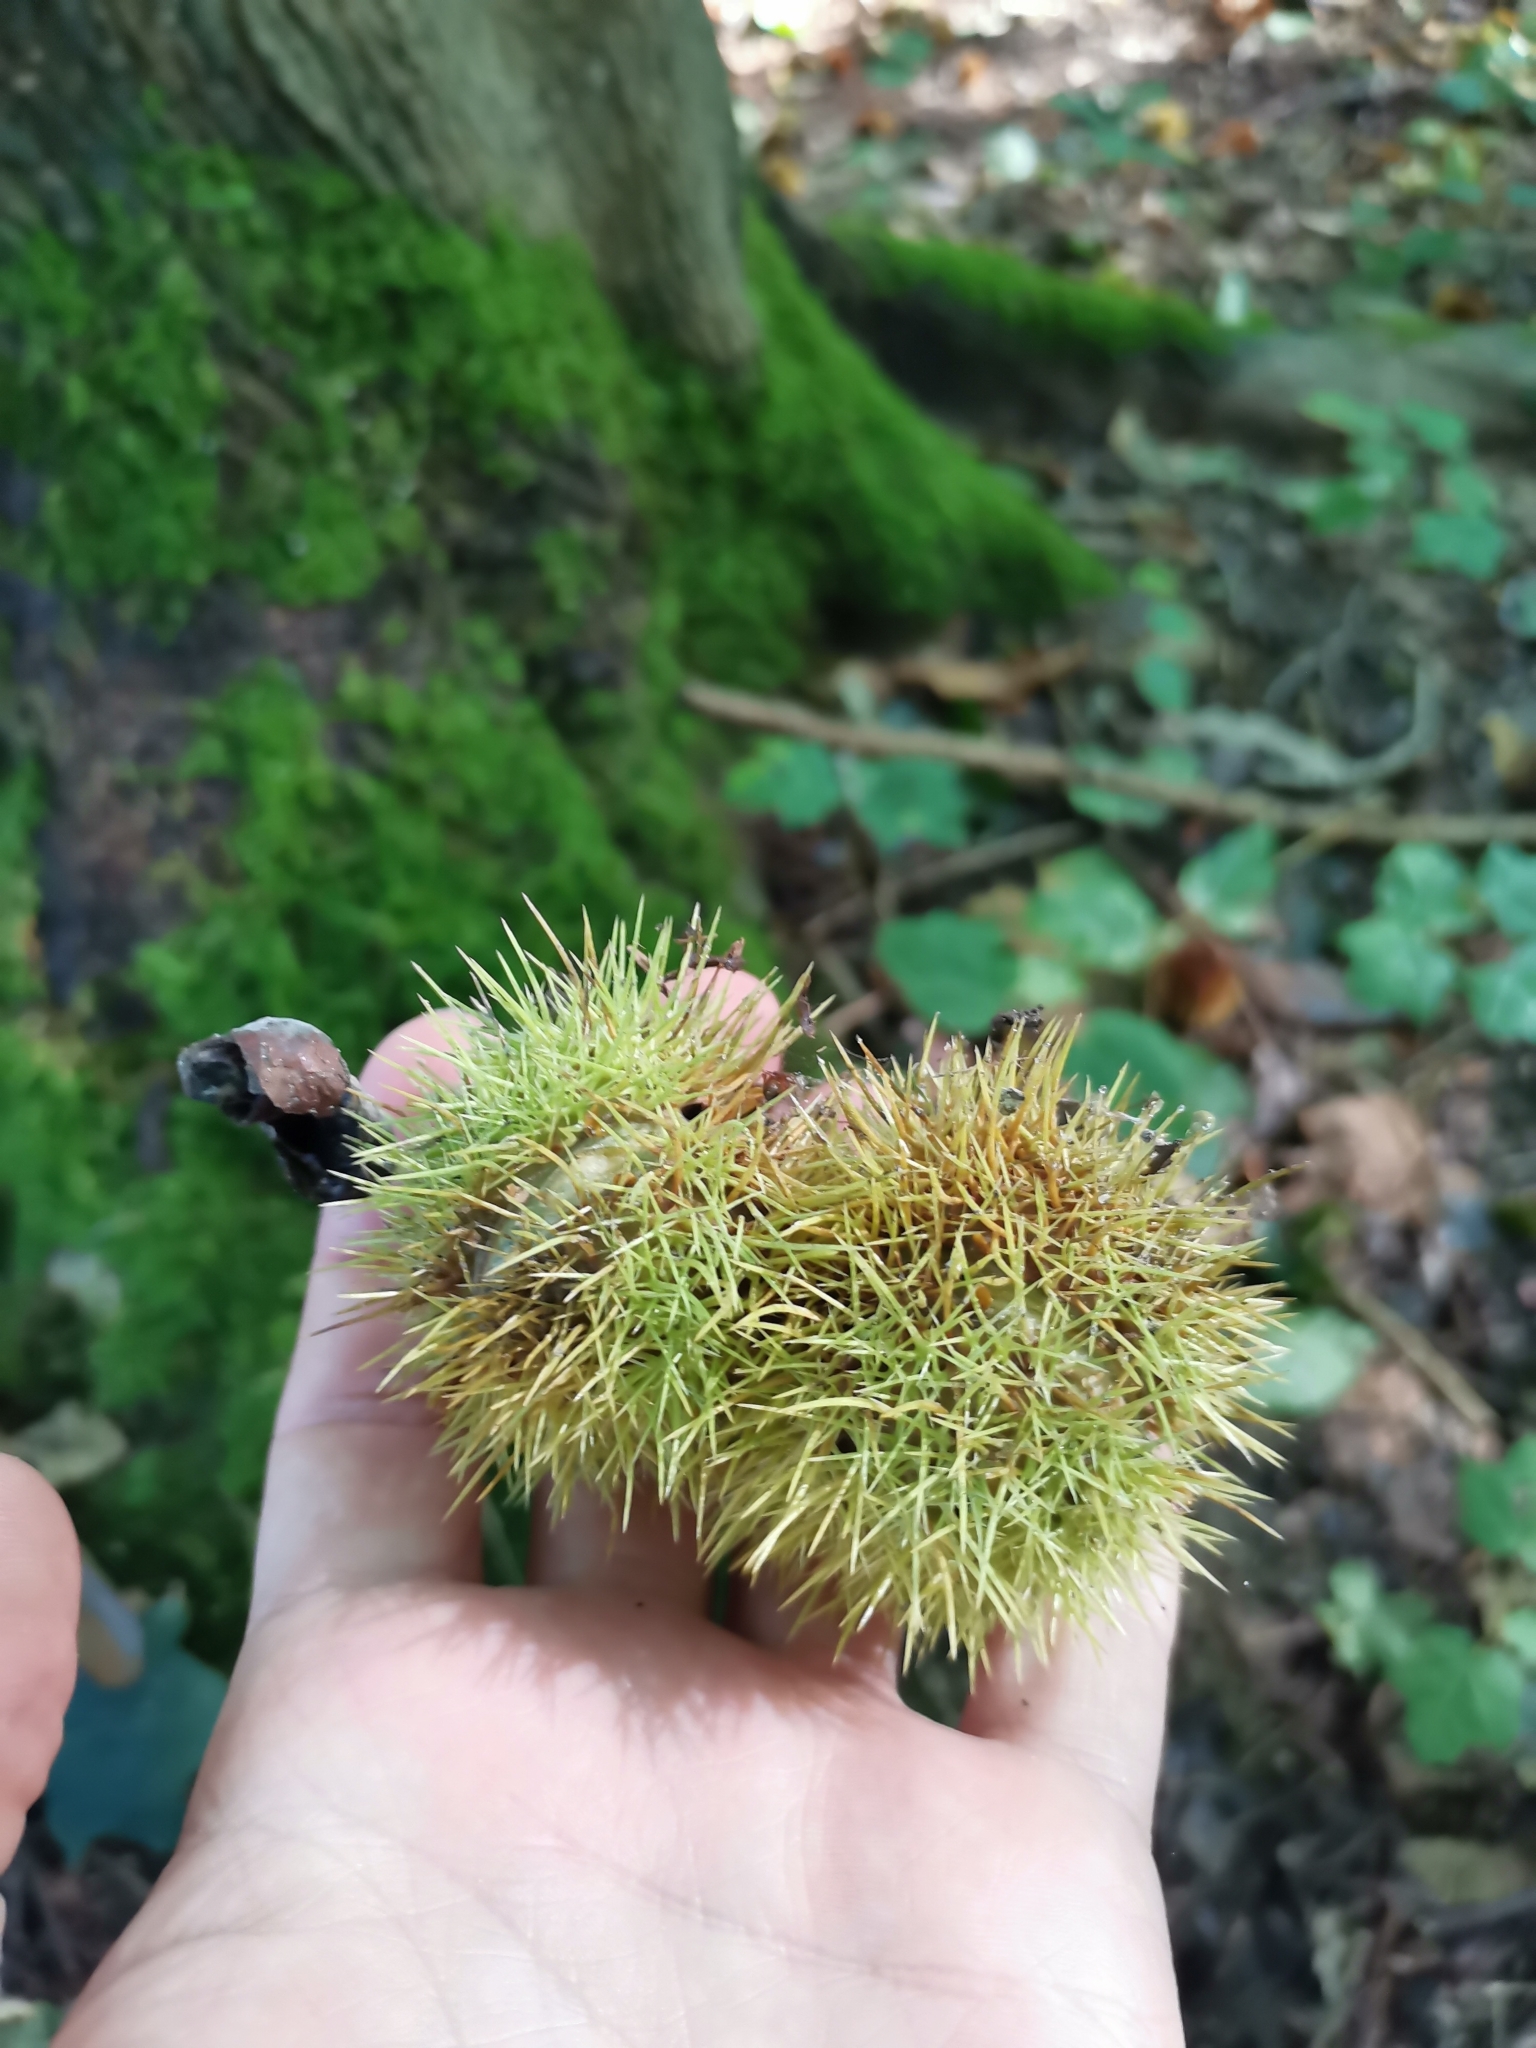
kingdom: Plantae
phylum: Tracheophyta
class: Magnoliopsida
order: Fagales
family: Fagaceae
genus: Castanea
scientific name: Castanea sativa
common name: Sweet chestnut
